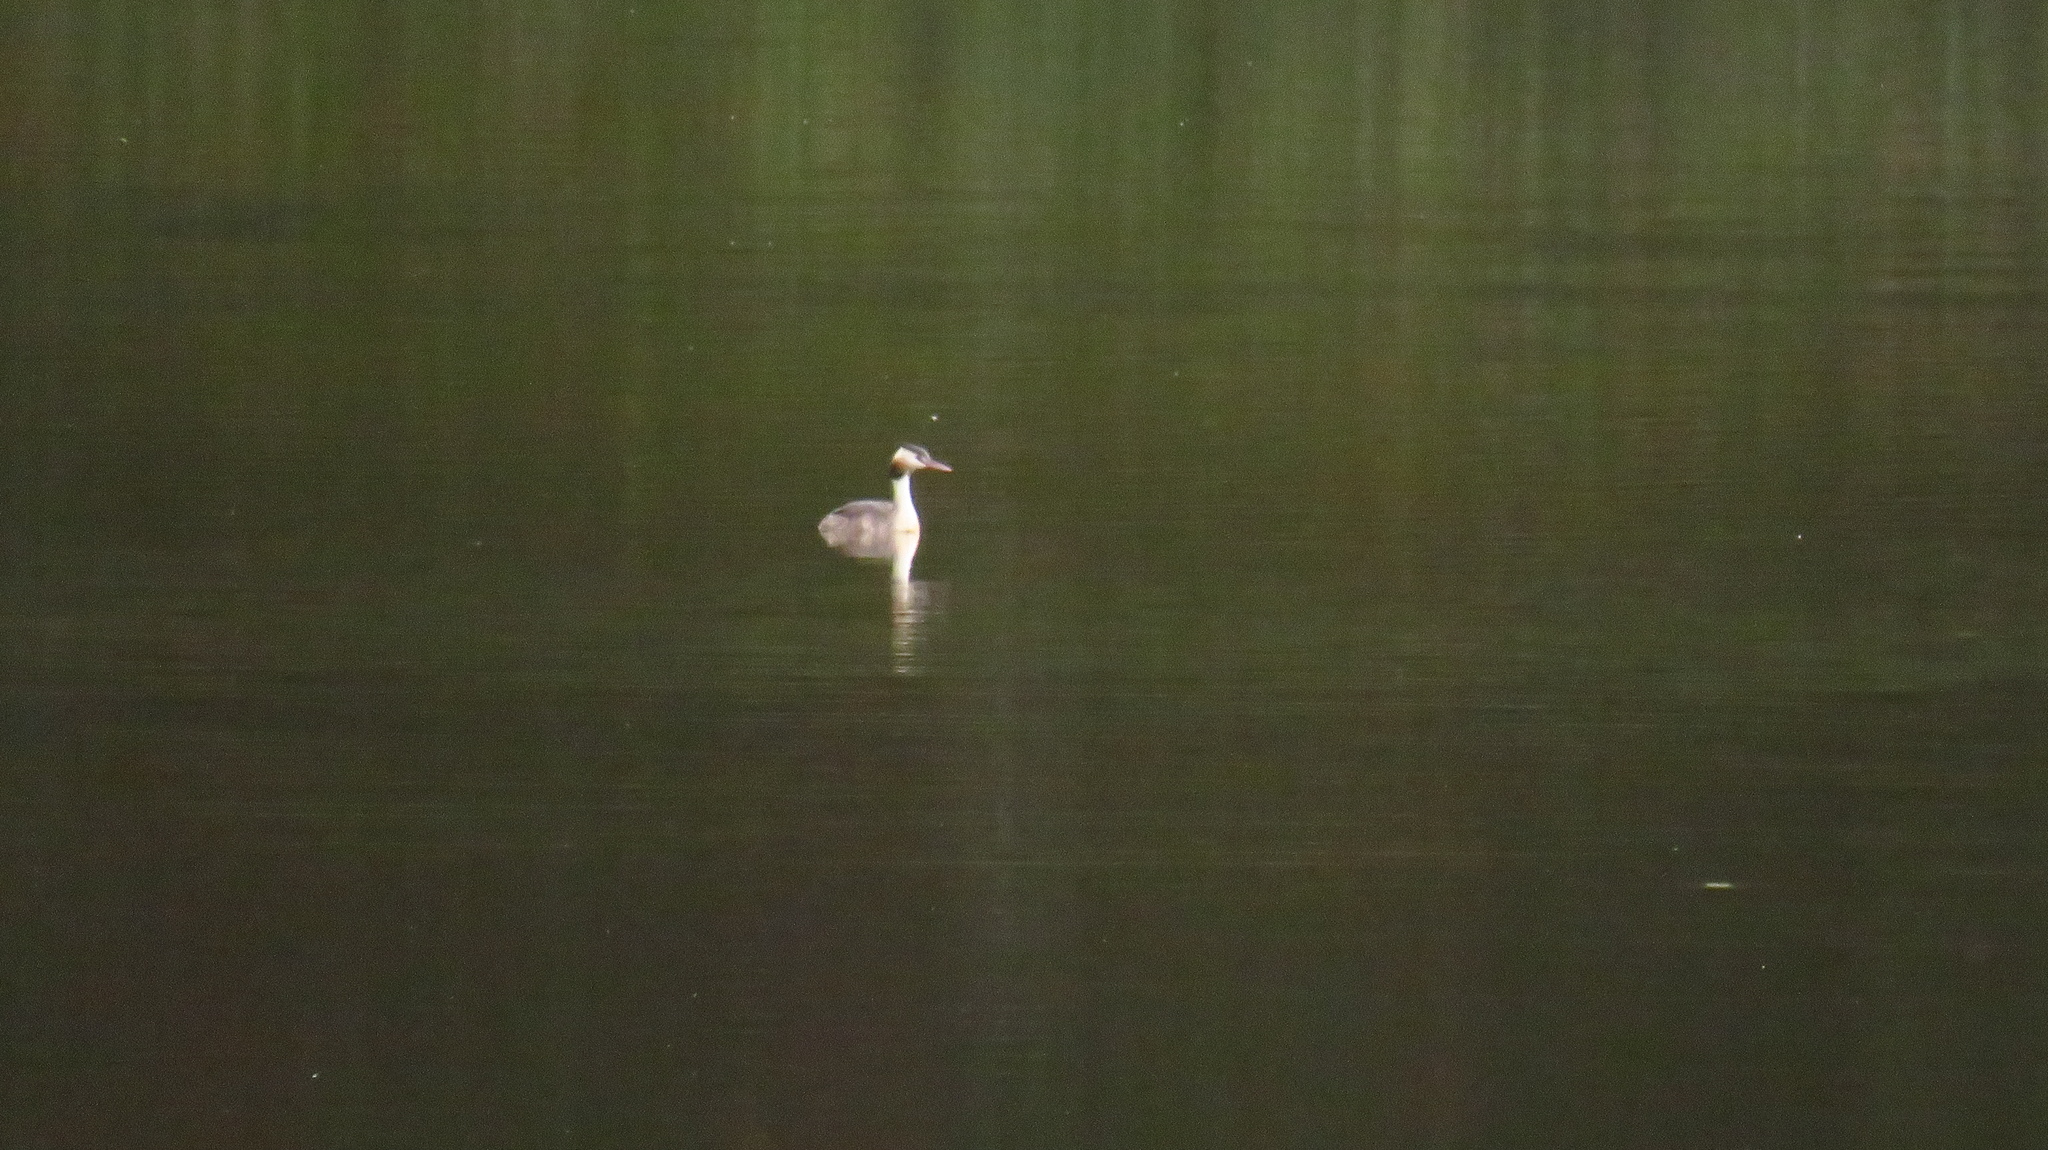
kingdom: Animalia
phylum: Chordata
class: Aves
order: Podicipediformes
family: Podicipedidae
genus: Podiceps
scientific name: Podiceps cristatus
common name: Great crested grebe
